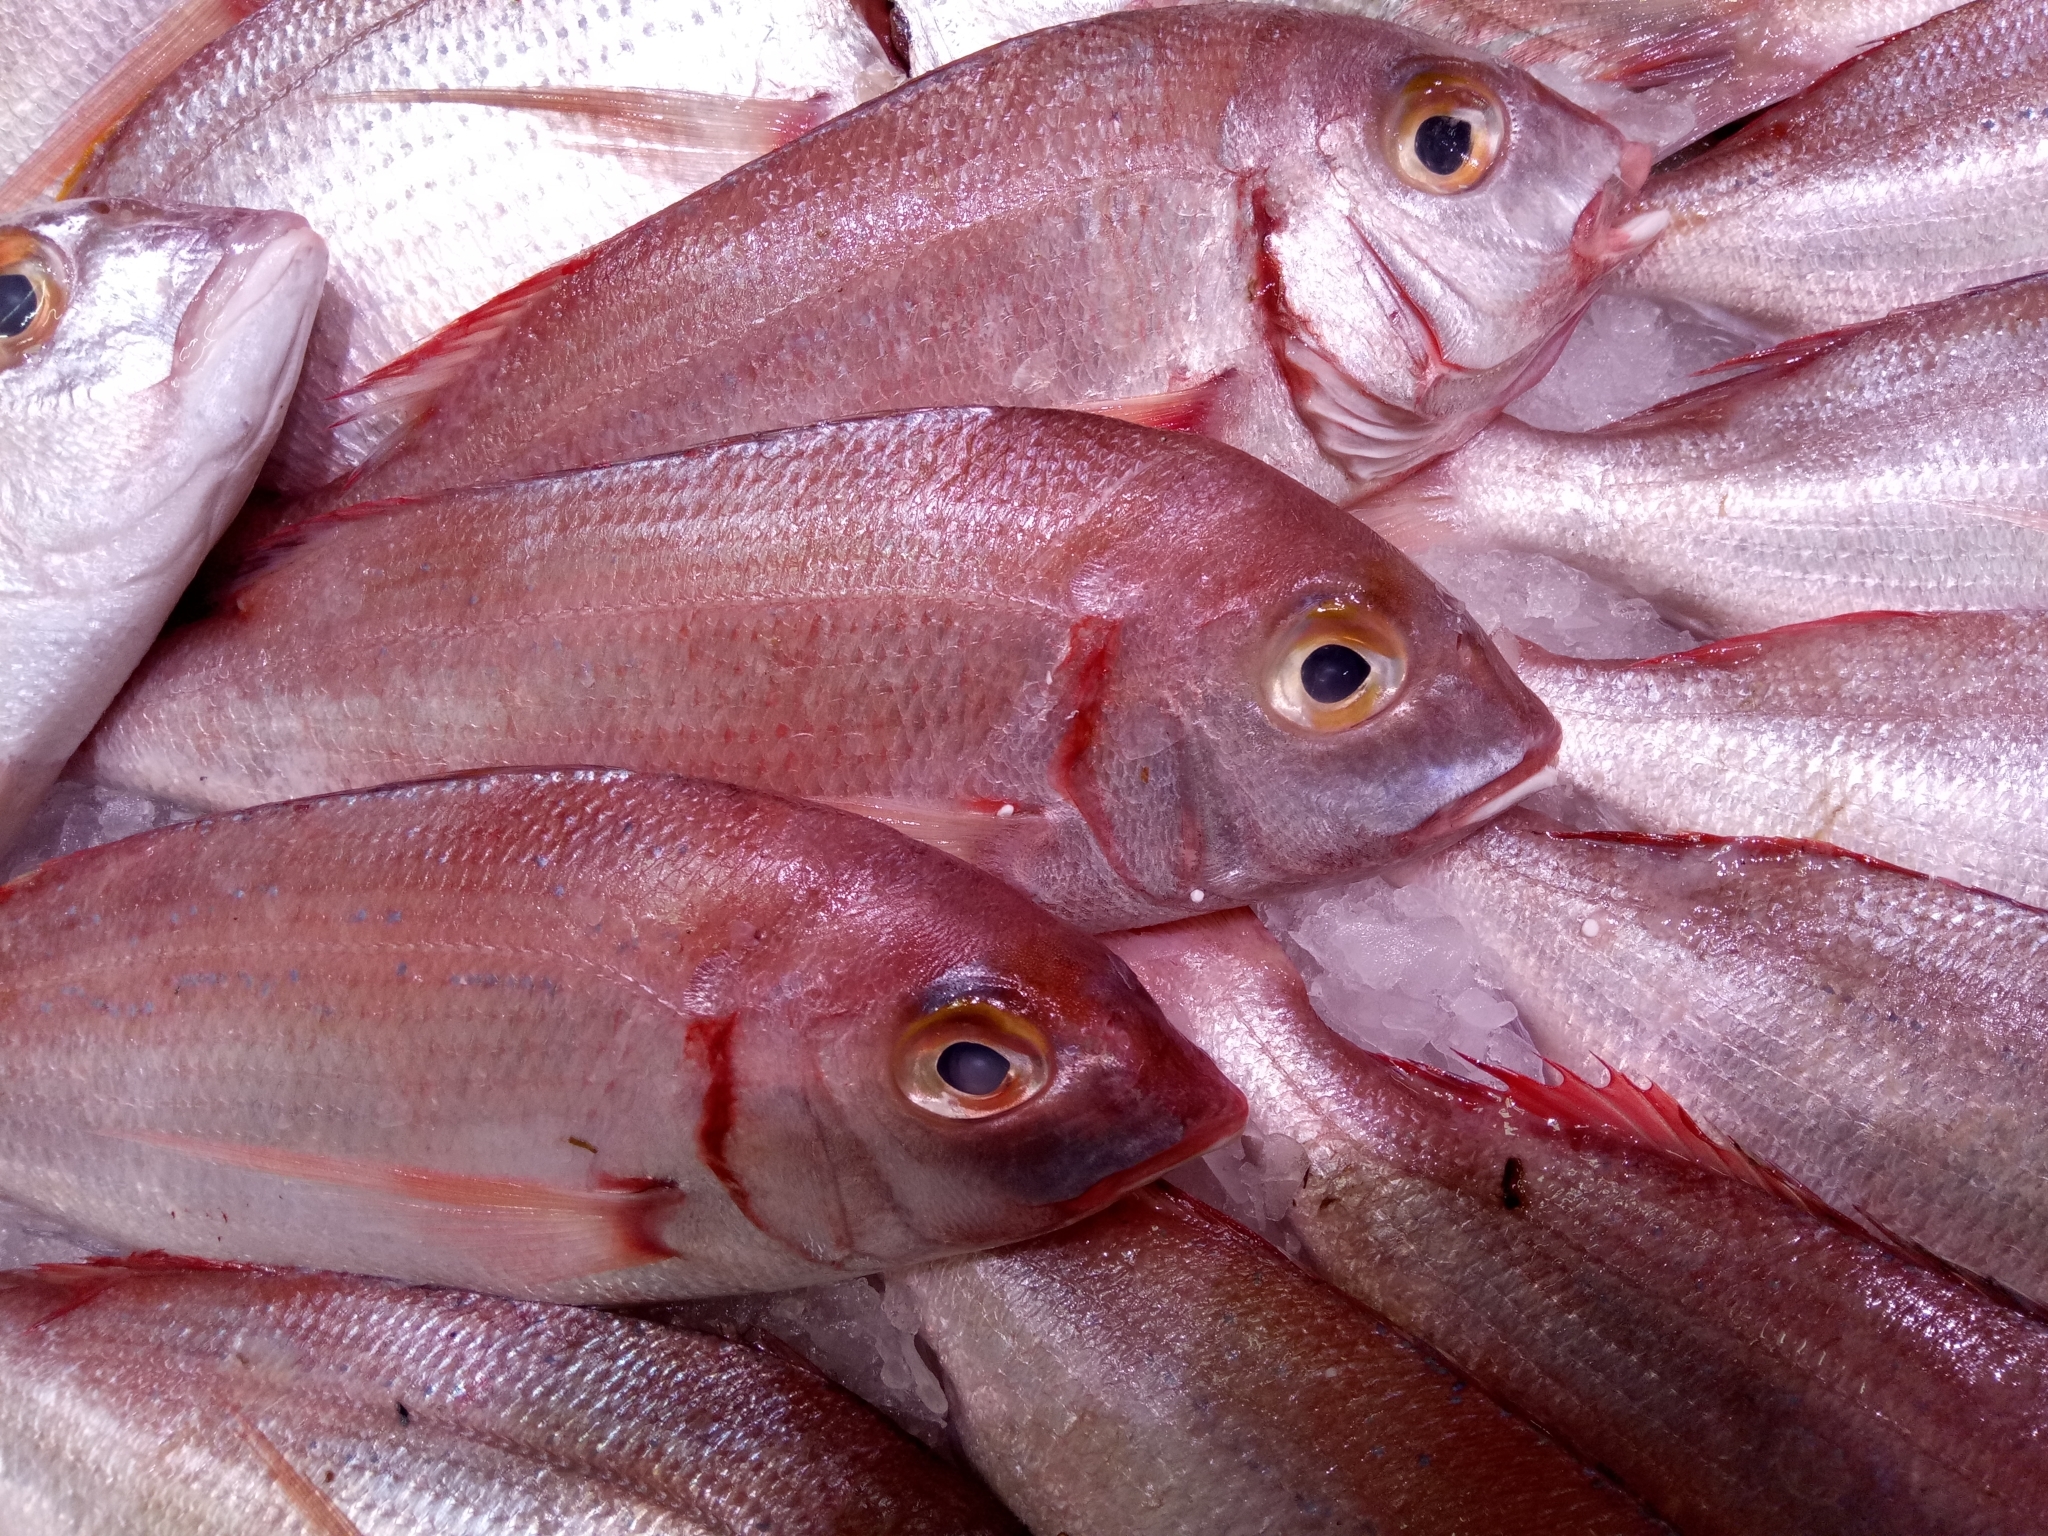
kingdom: Animalia
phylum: Chordata
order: Perciformes
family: Sparidae
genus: Pagellus
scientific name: Pagellus erythrinus
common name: Pandora
